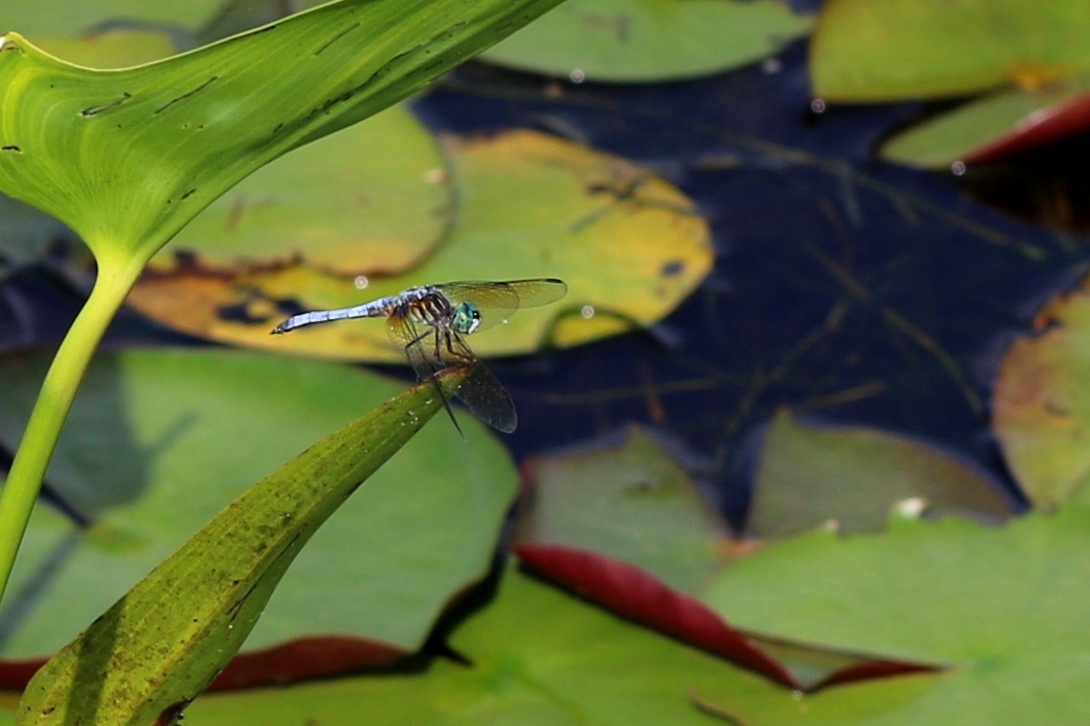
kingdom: Animalia
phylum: Arthropoda
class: Insecta
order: Odonata
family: Libellulidae
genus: Pachydiplax
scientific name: Pachydiplax longipennis
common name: Blue dasher
